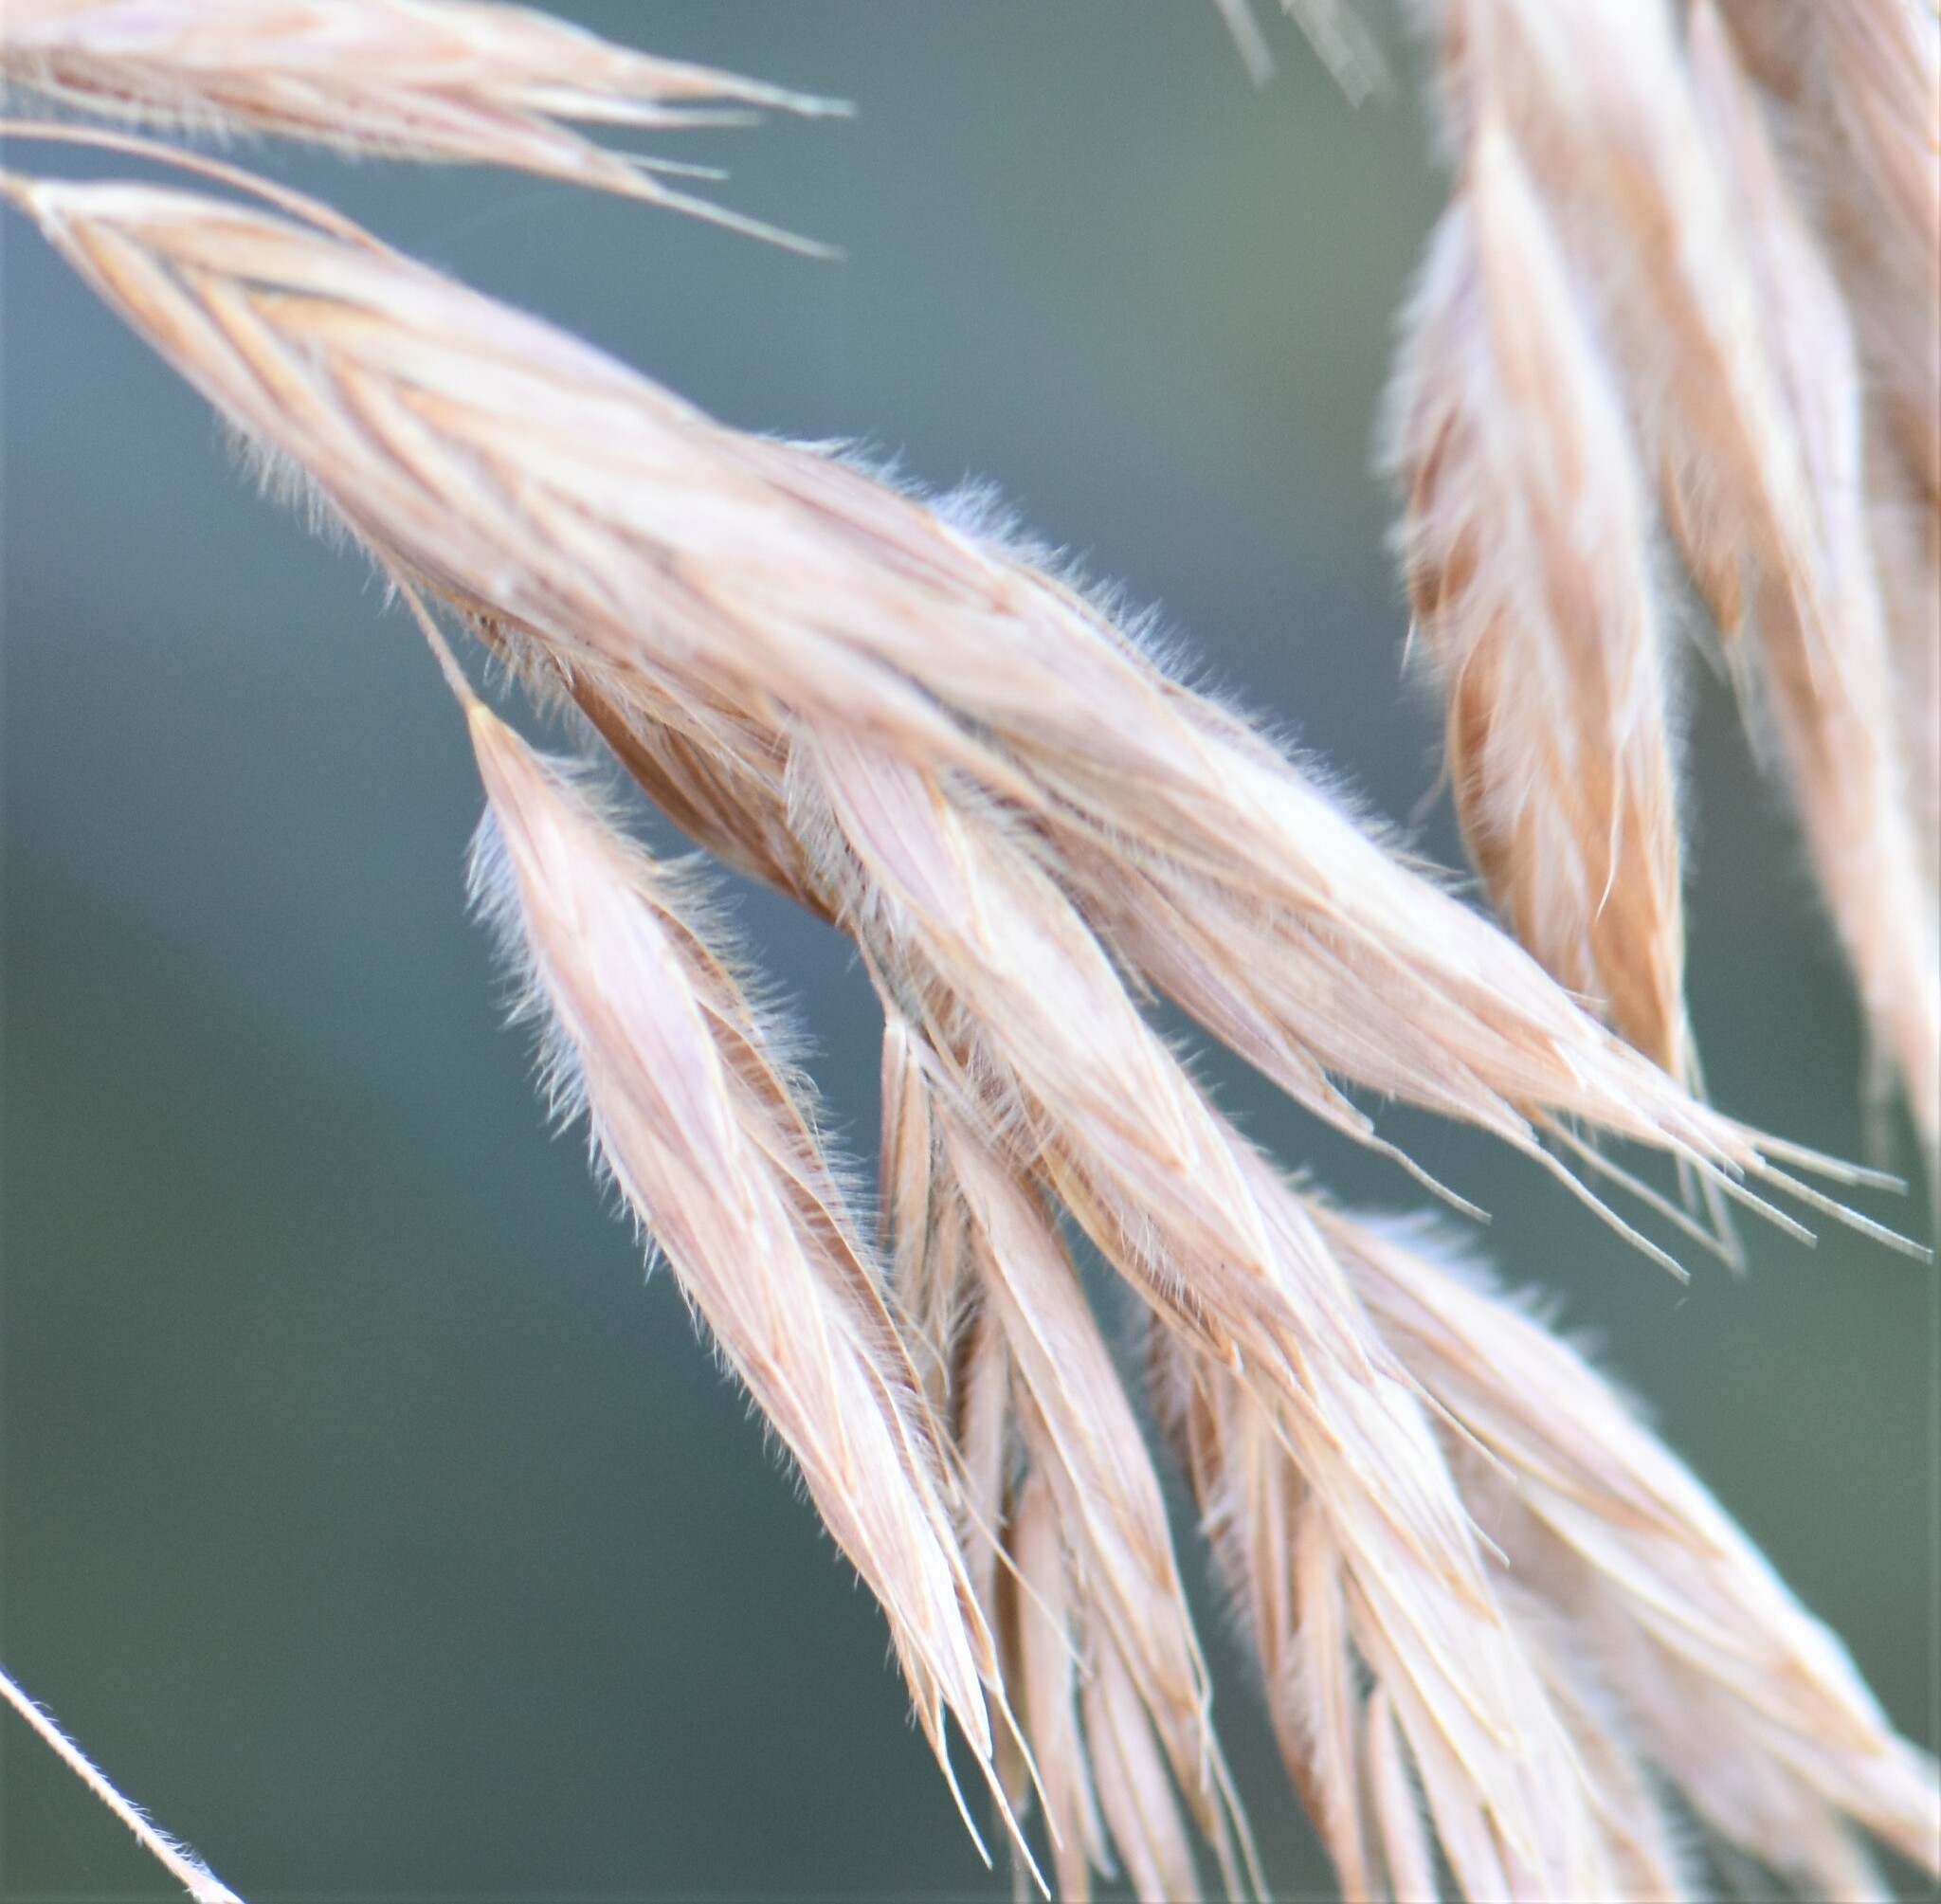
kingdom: Plantae
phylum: Tracheophyta
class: Liliopsida
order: Poales
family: Poaceae
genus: Bromus
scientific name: Bromus ciliatus
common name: Fringe brome
